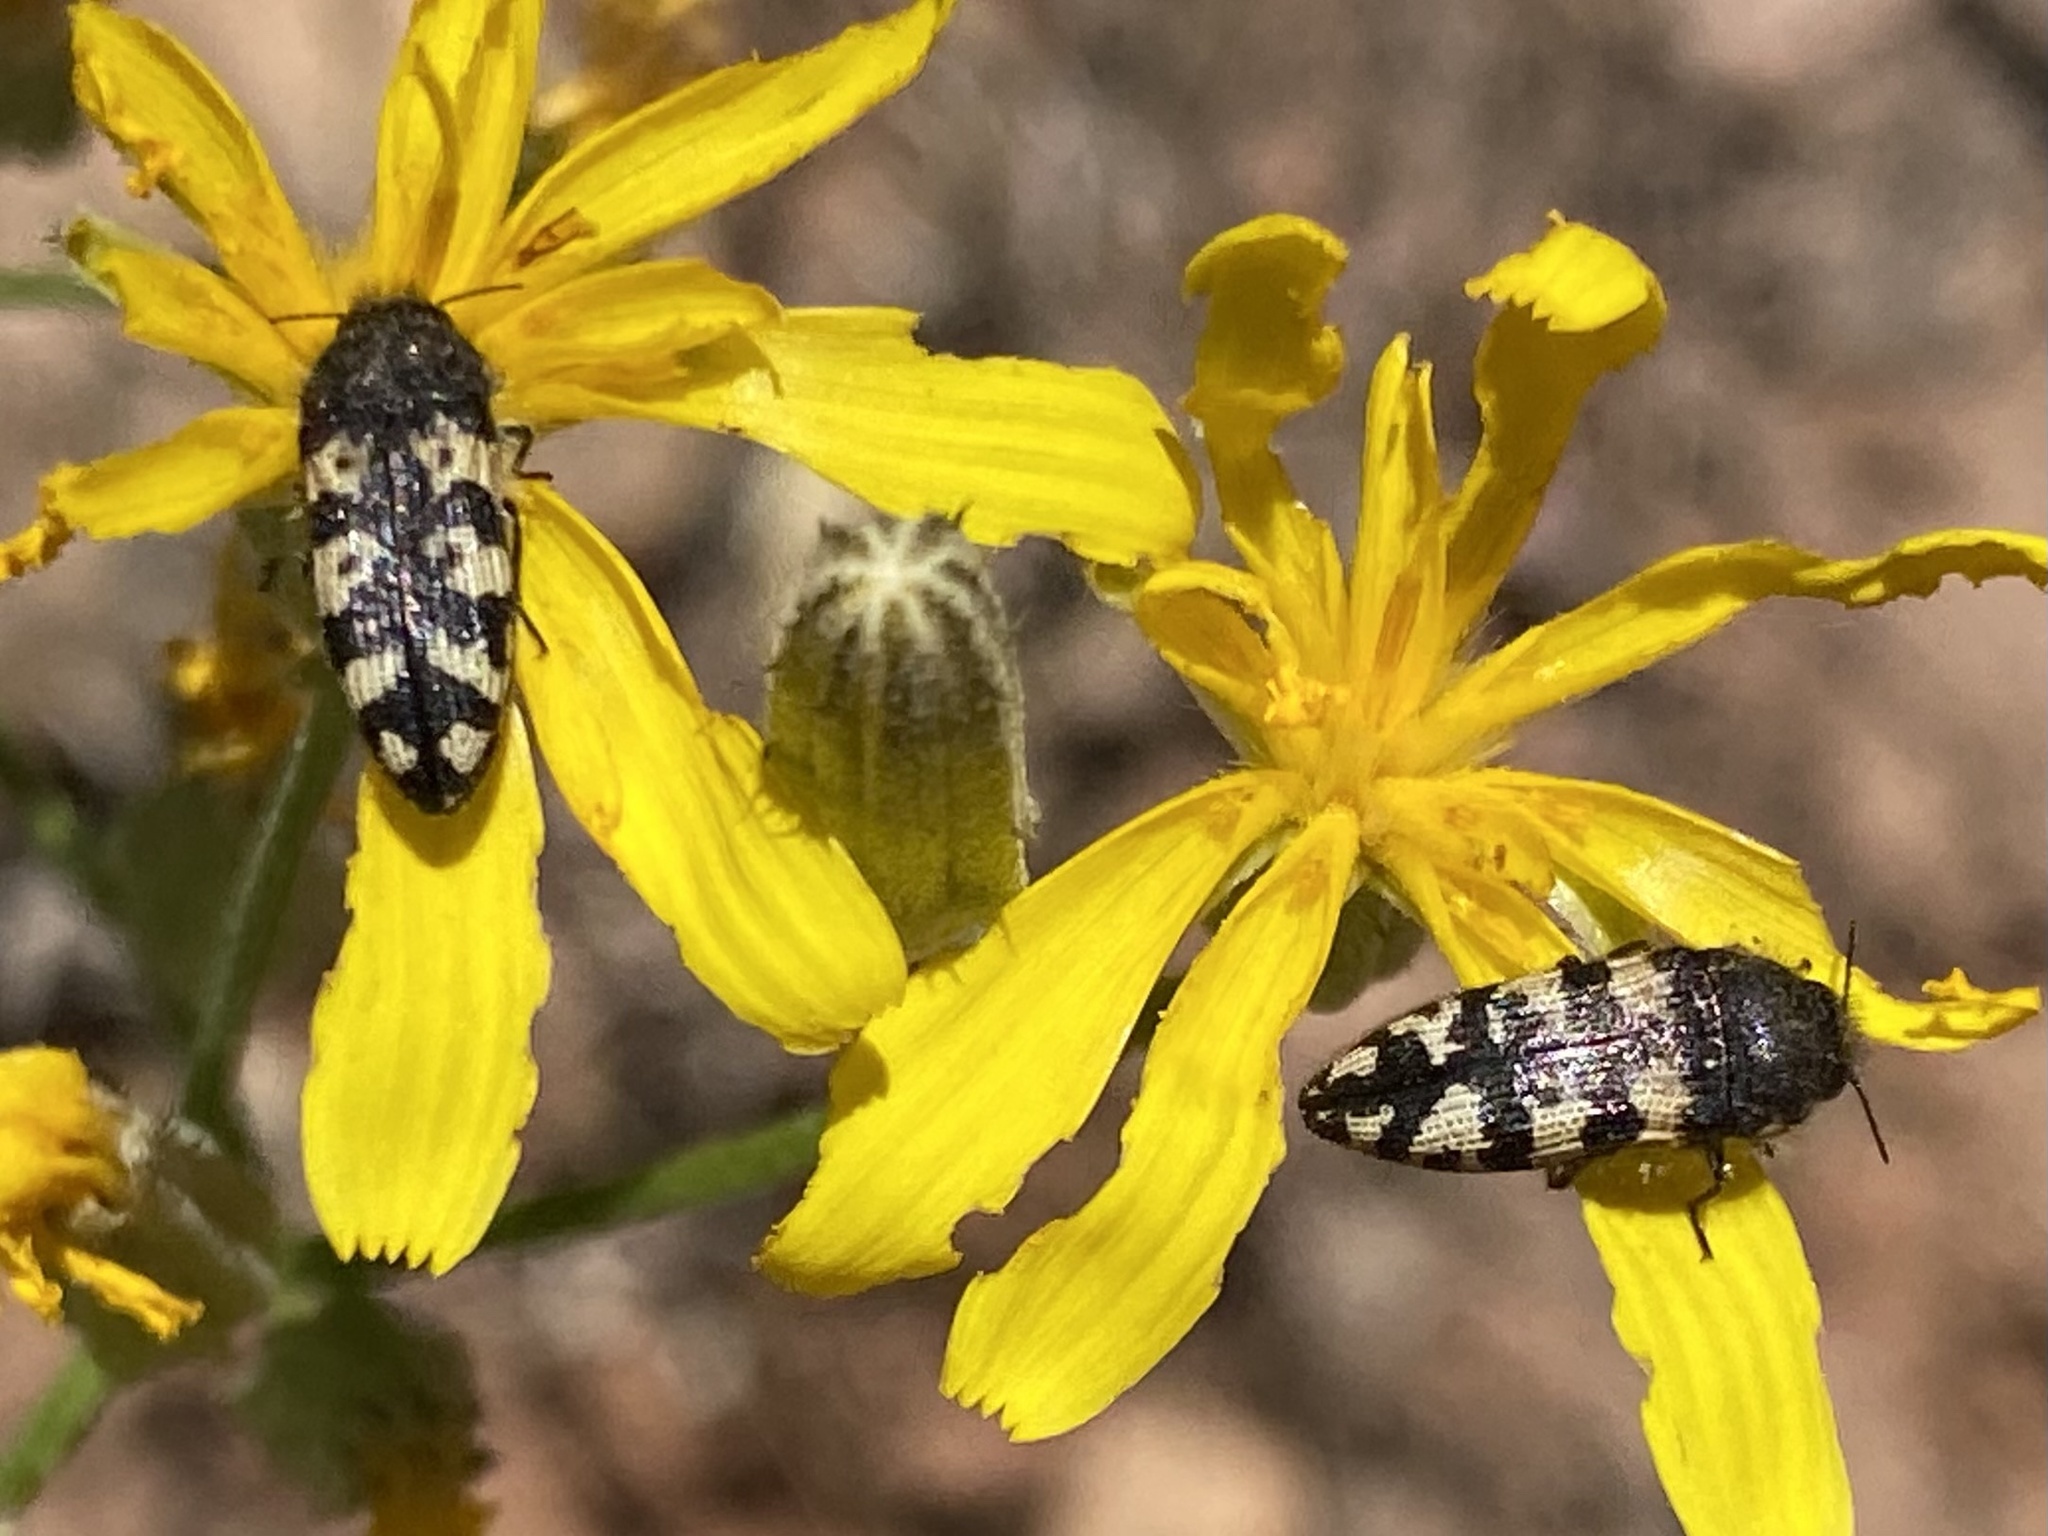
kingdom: Animalia
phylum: Arthropoda
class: Insecta
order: Coleoptera
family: Buprestidae
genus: Acmaeodera
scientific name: Acmaeodera diffusa
